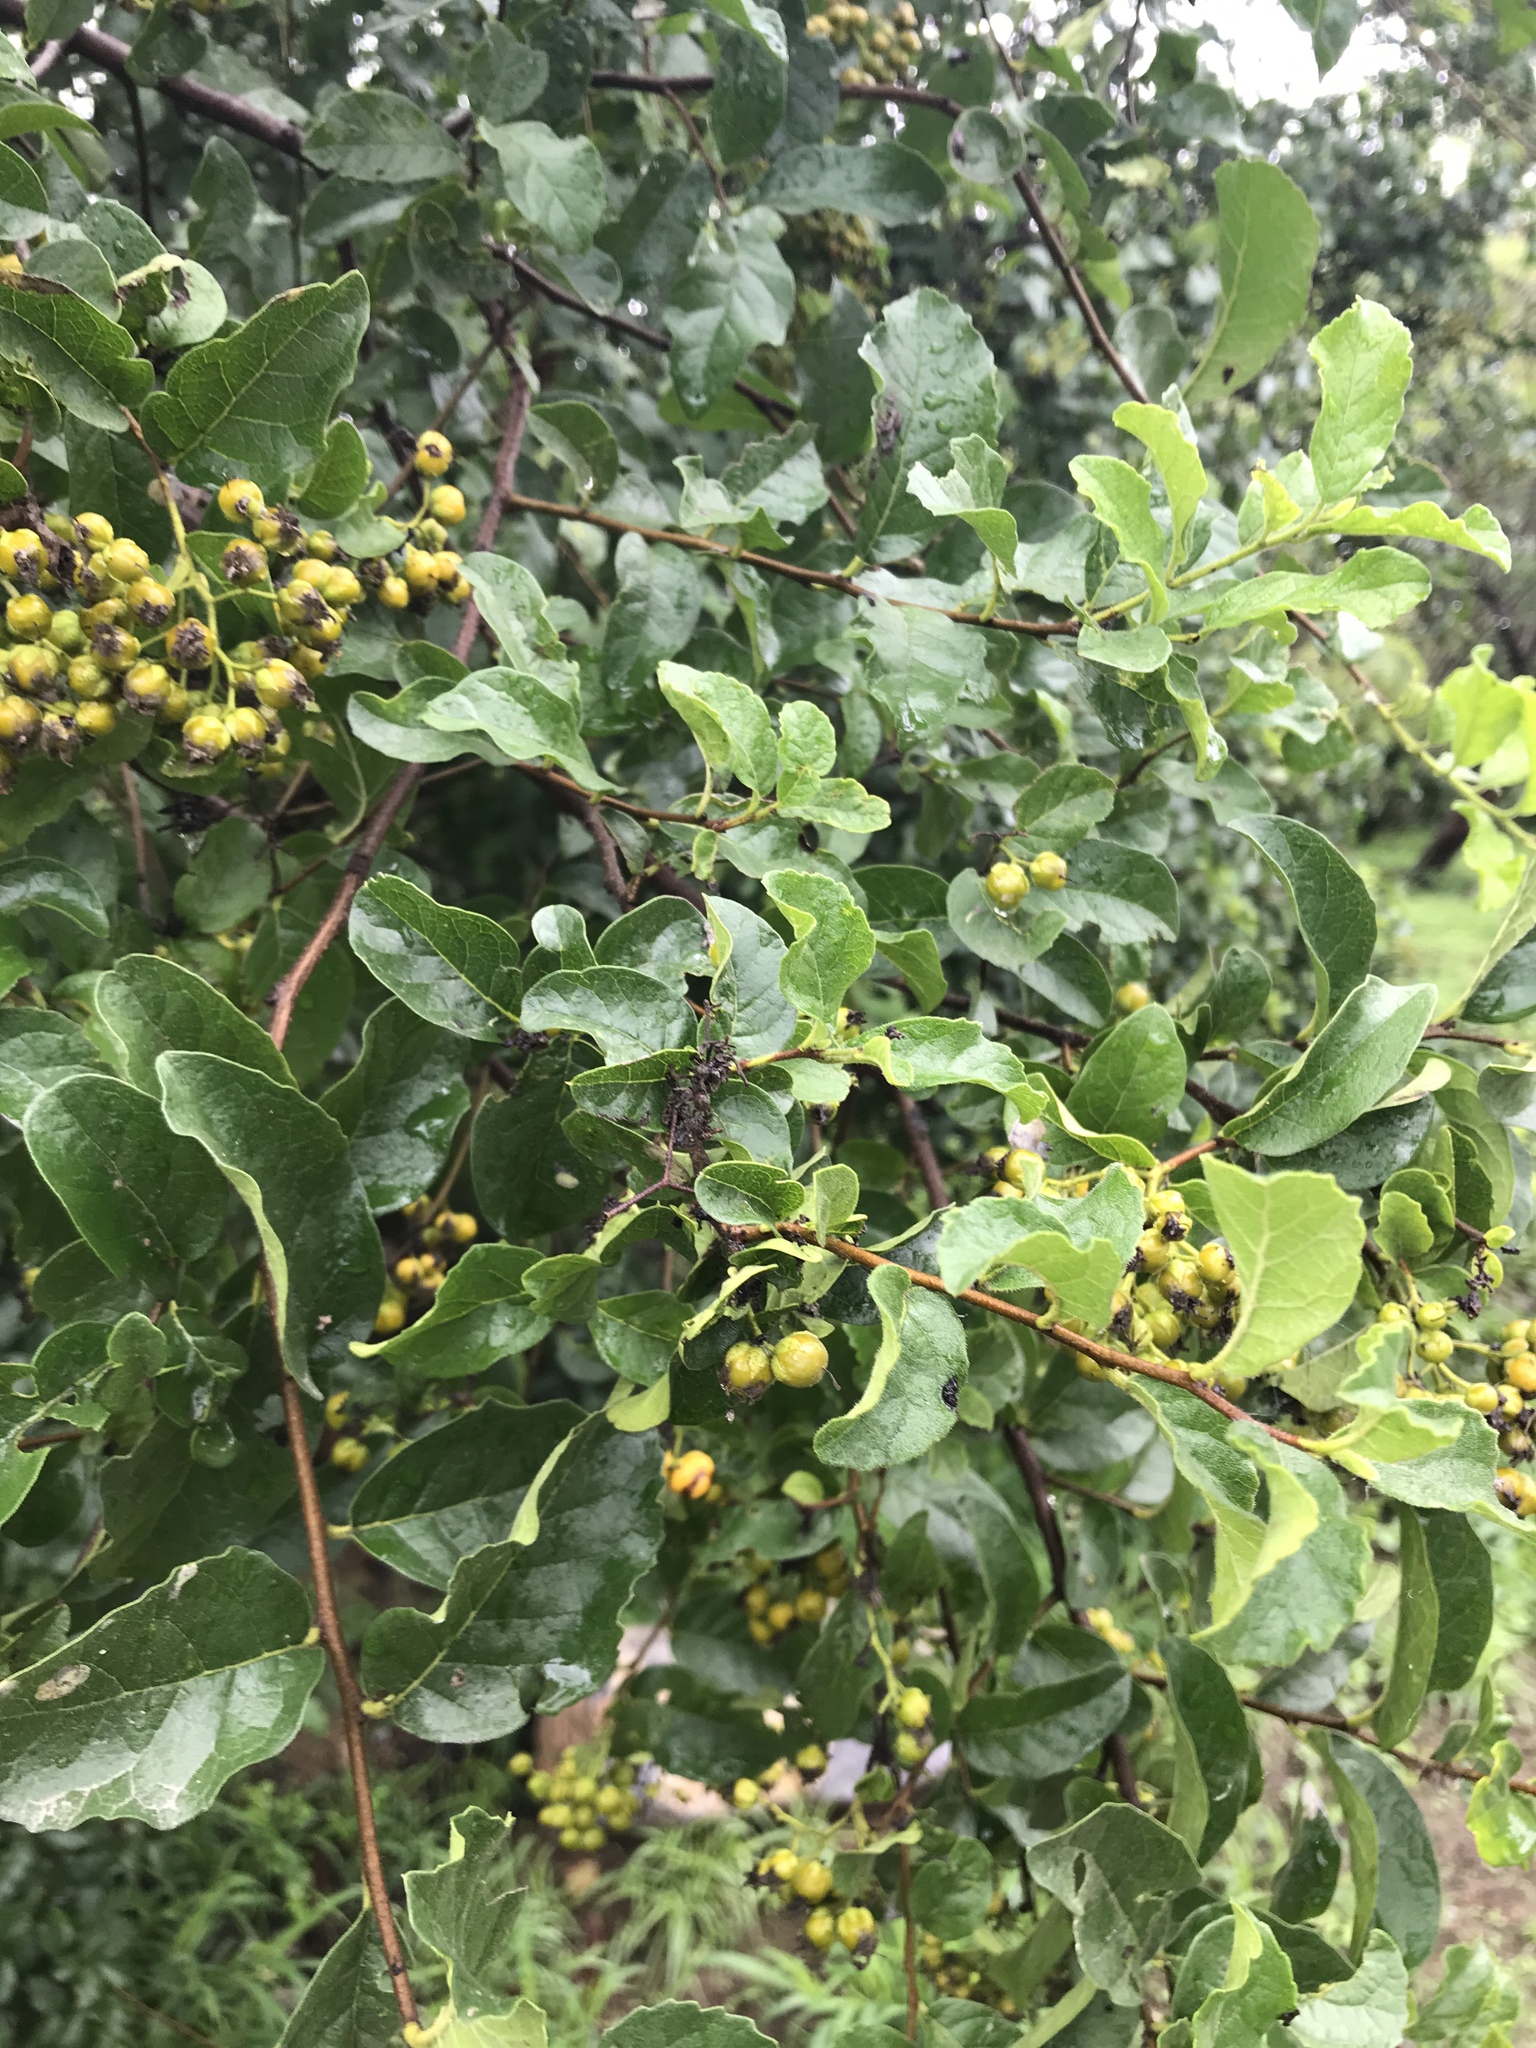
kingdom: Plantae
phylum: Tracheophyta
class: Magnoliopsida
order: Boraginales
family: Ehretiaceae
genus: Ehretia
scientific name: Ehretia anacua
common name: Sugarberry
